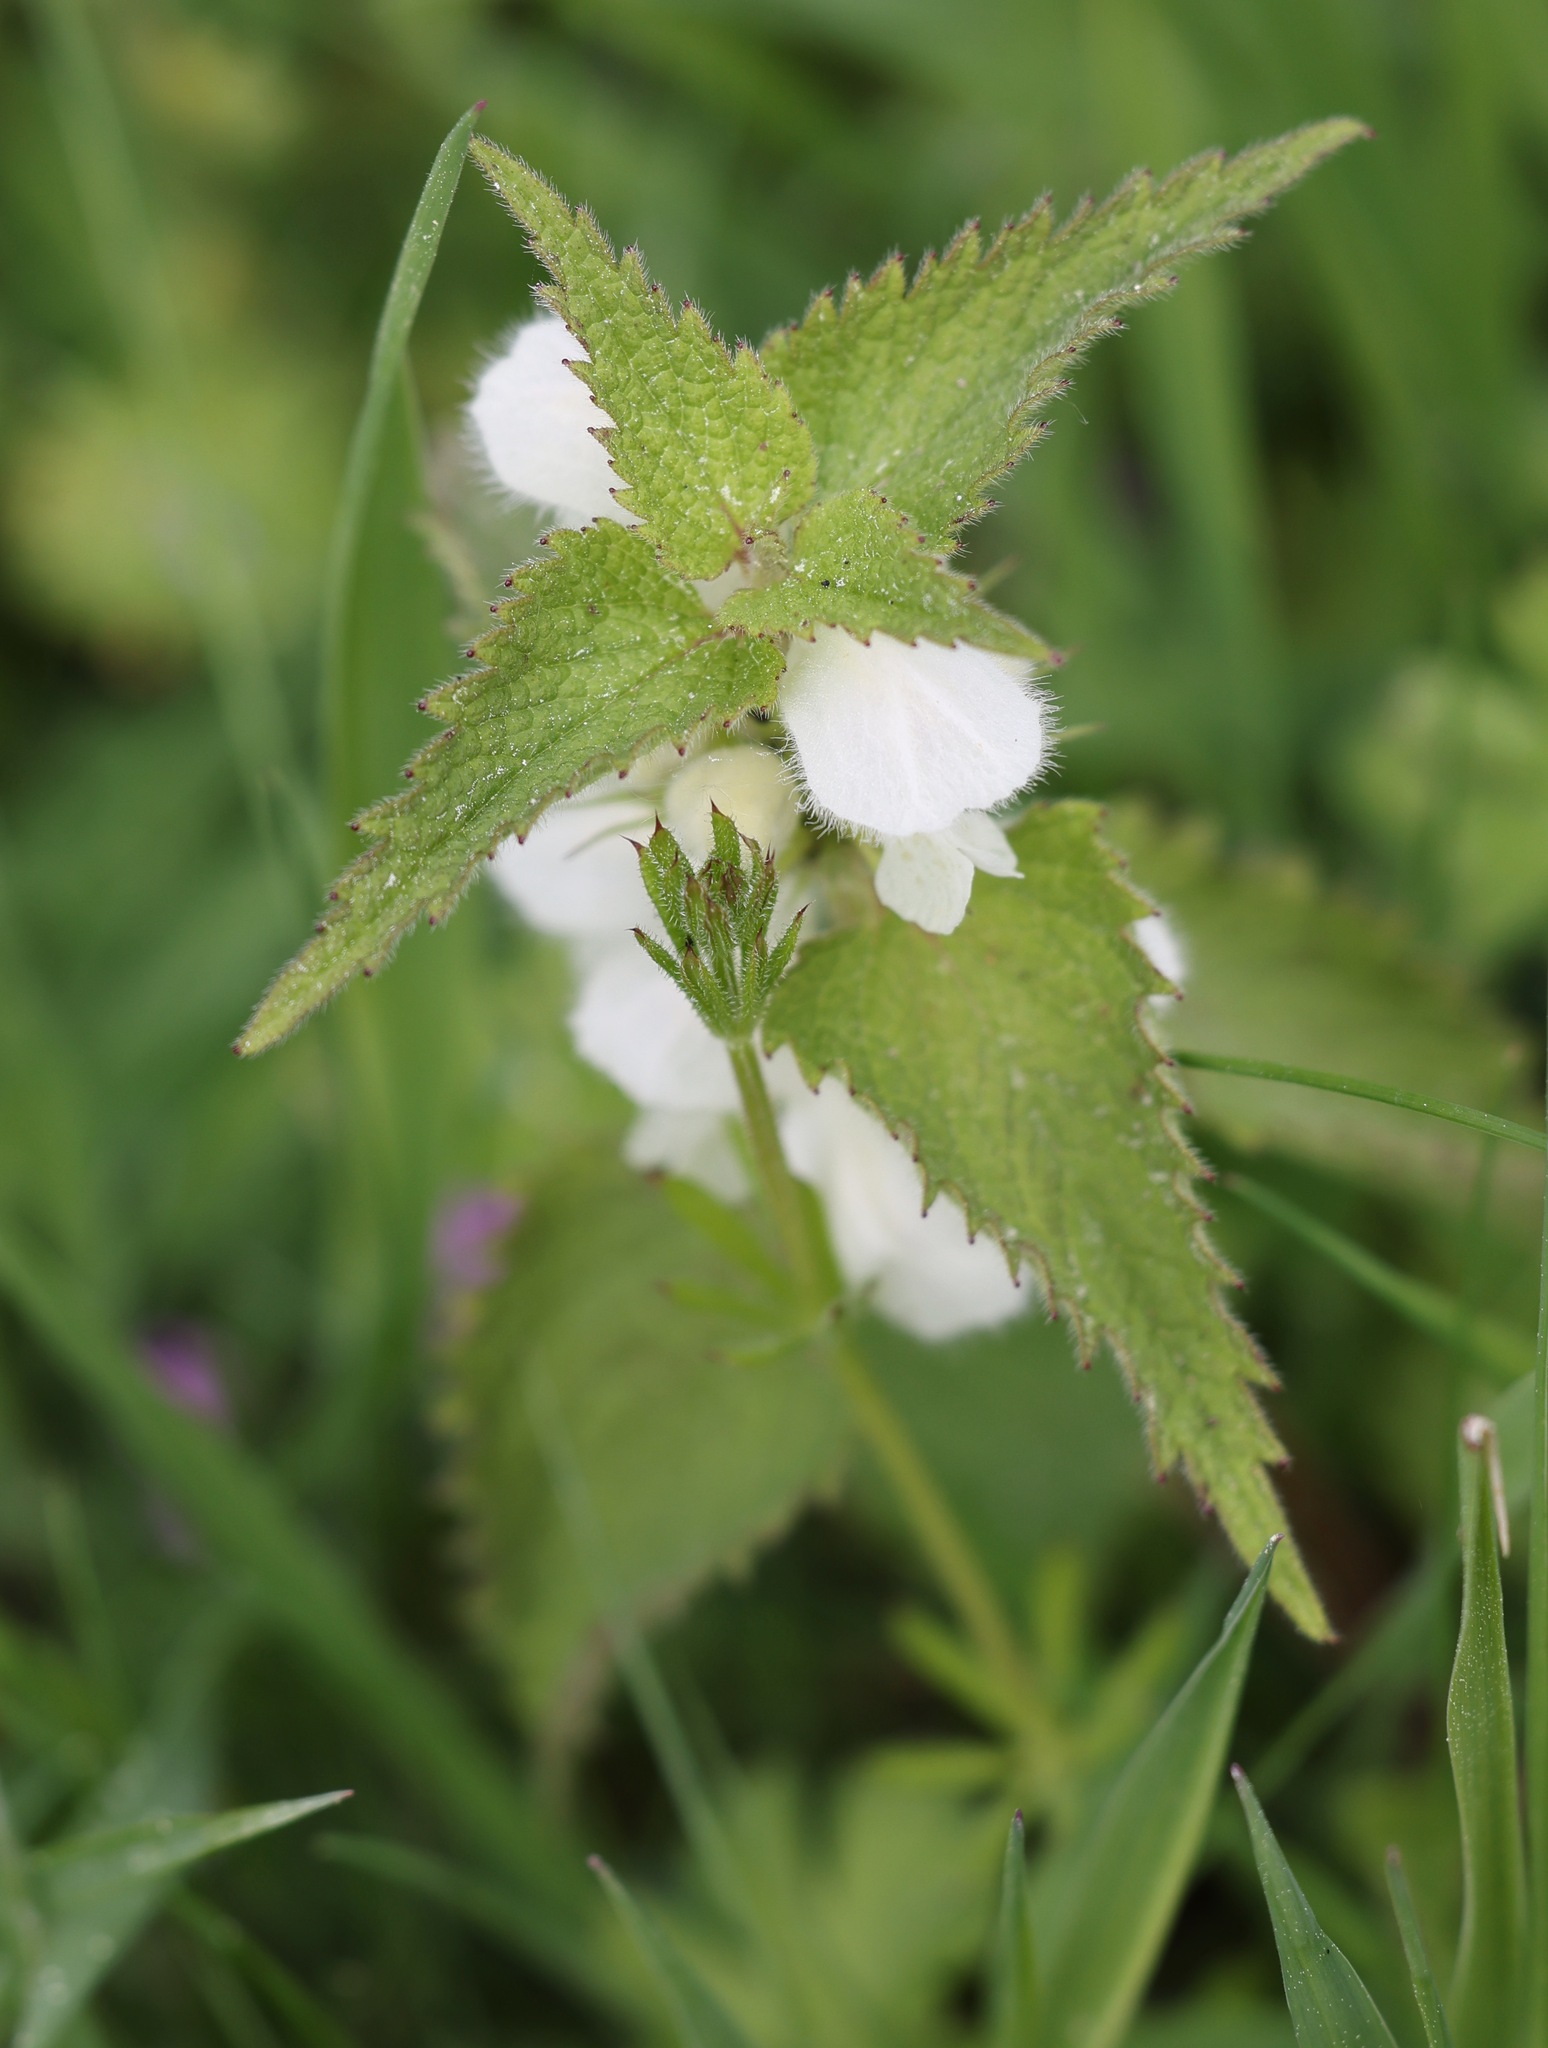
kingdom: Plantae
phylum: Tracheophyta
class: Magnoliopsida
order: Lamiales
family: Lamiaceae
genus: Lamium
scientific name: Lamium album
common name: White dead-nettle
